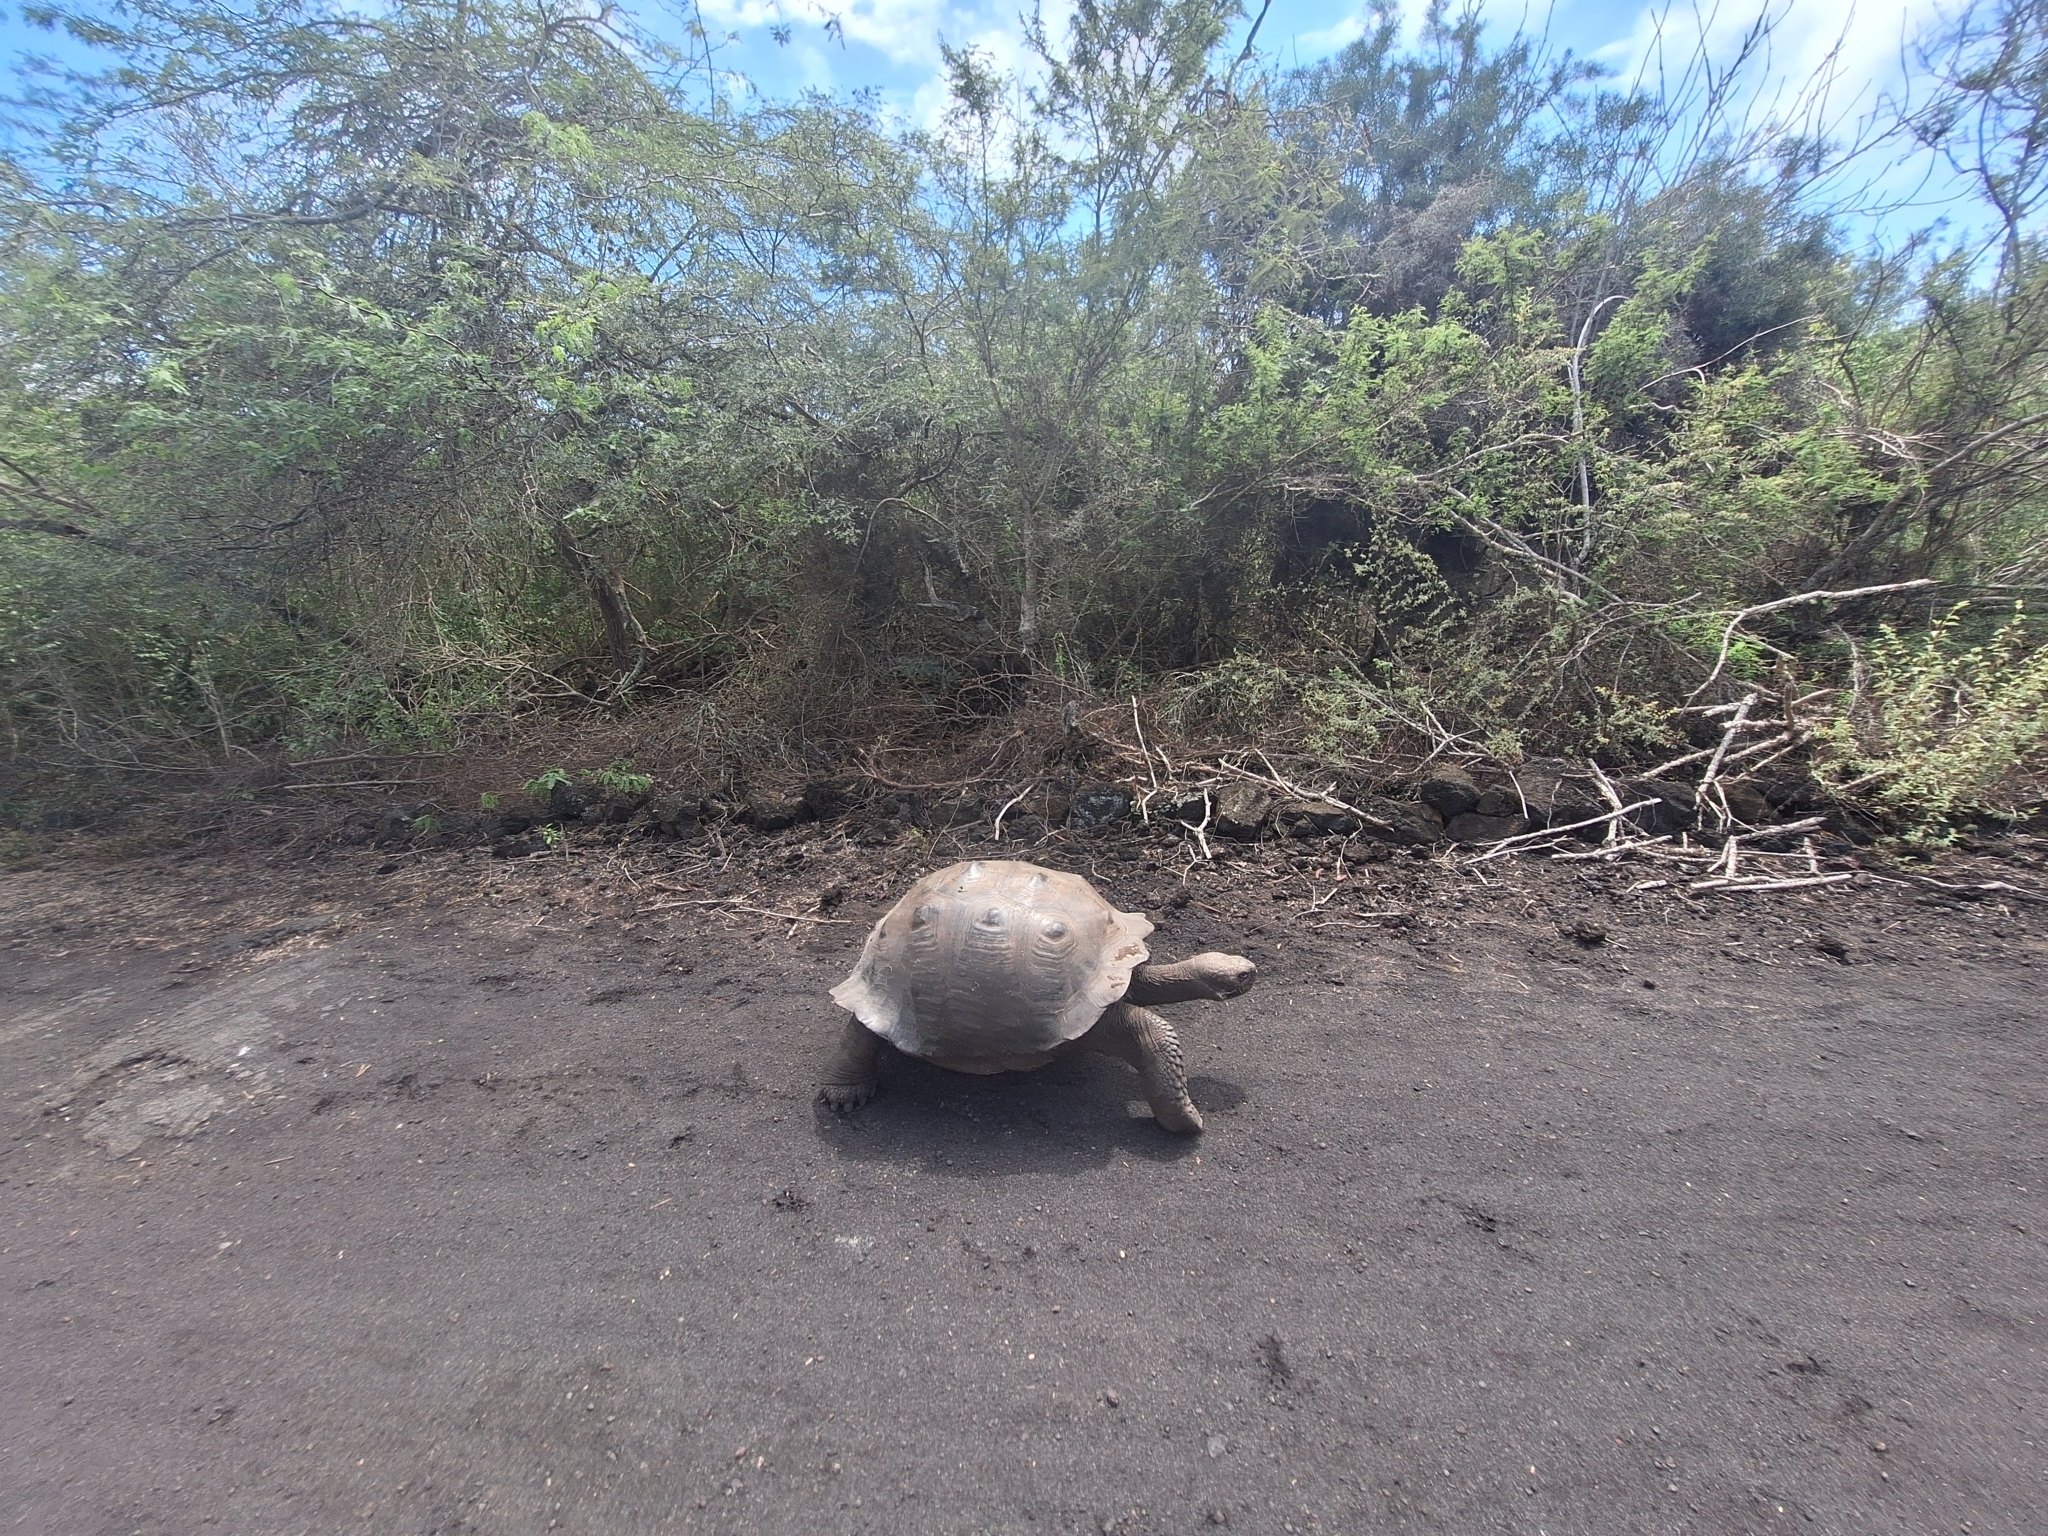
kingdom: Animalia
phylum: Chordata
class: Testudines
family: Testudinidae
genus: Chelonoidis
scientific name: Chelonoidis niger
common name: Charles island giant tortoise
